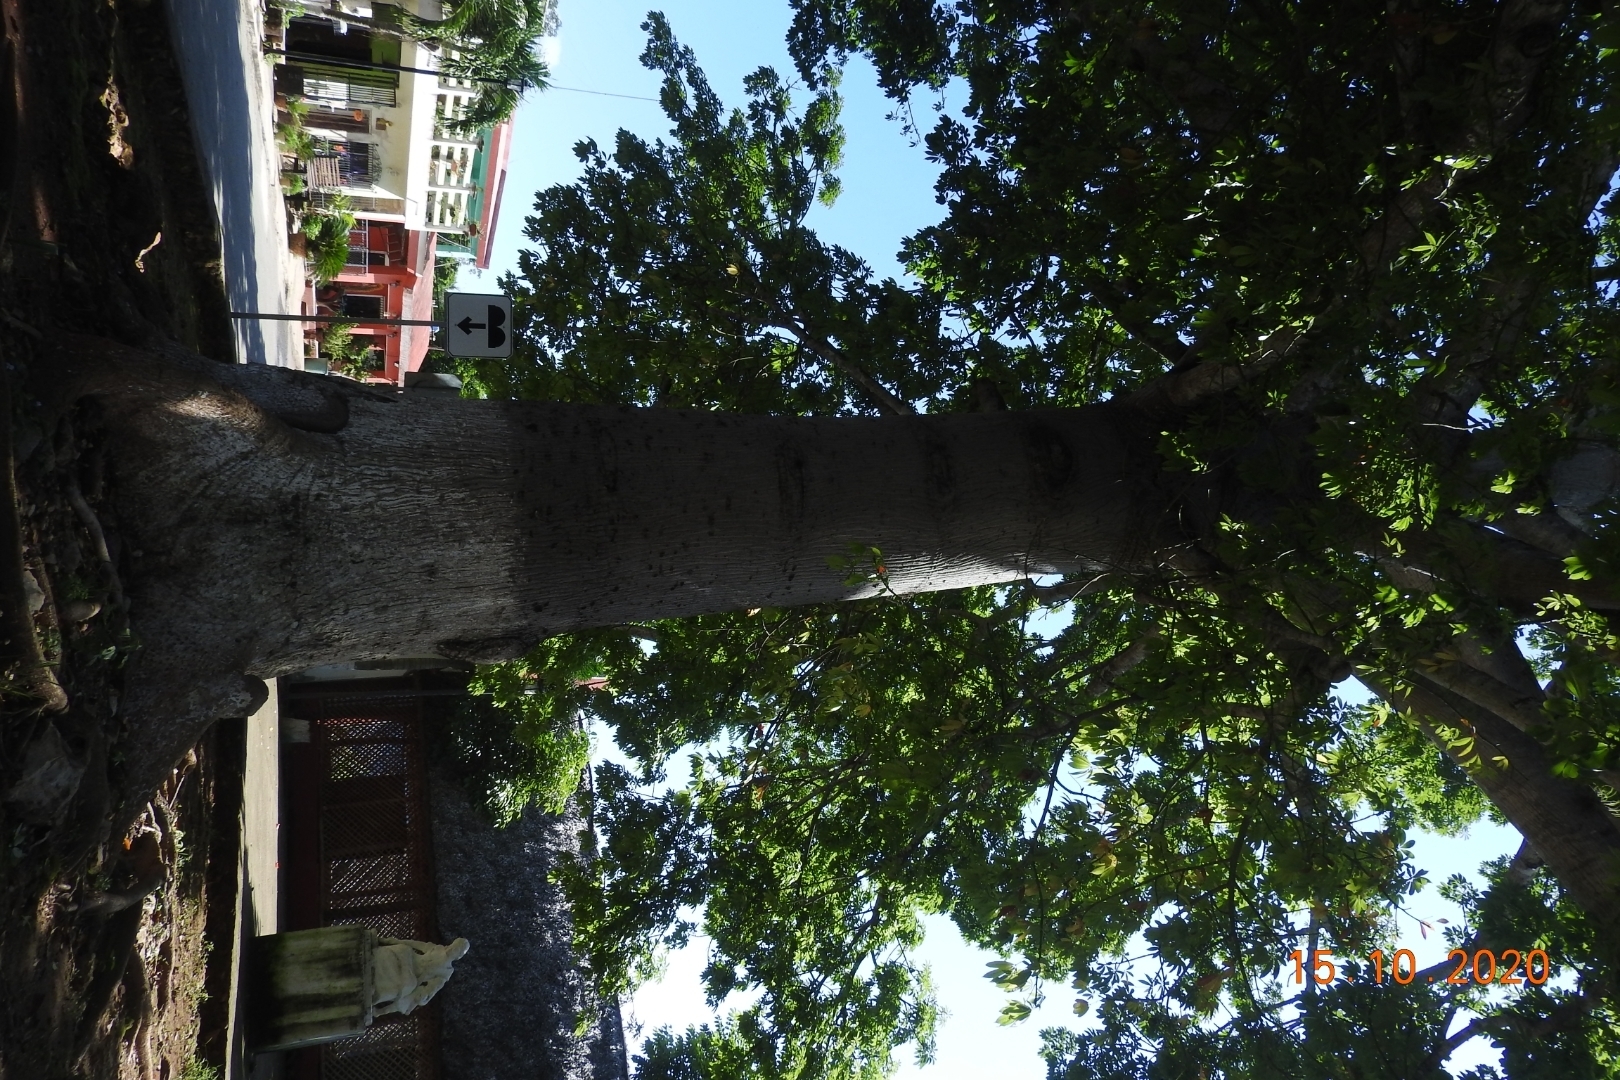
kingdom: Plantae
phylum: Tracheophyta
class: Magnoliopsida
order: Malvales
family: Malvaceae
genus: Ceiba
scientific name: Ceiba pentandra
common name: Kapok
